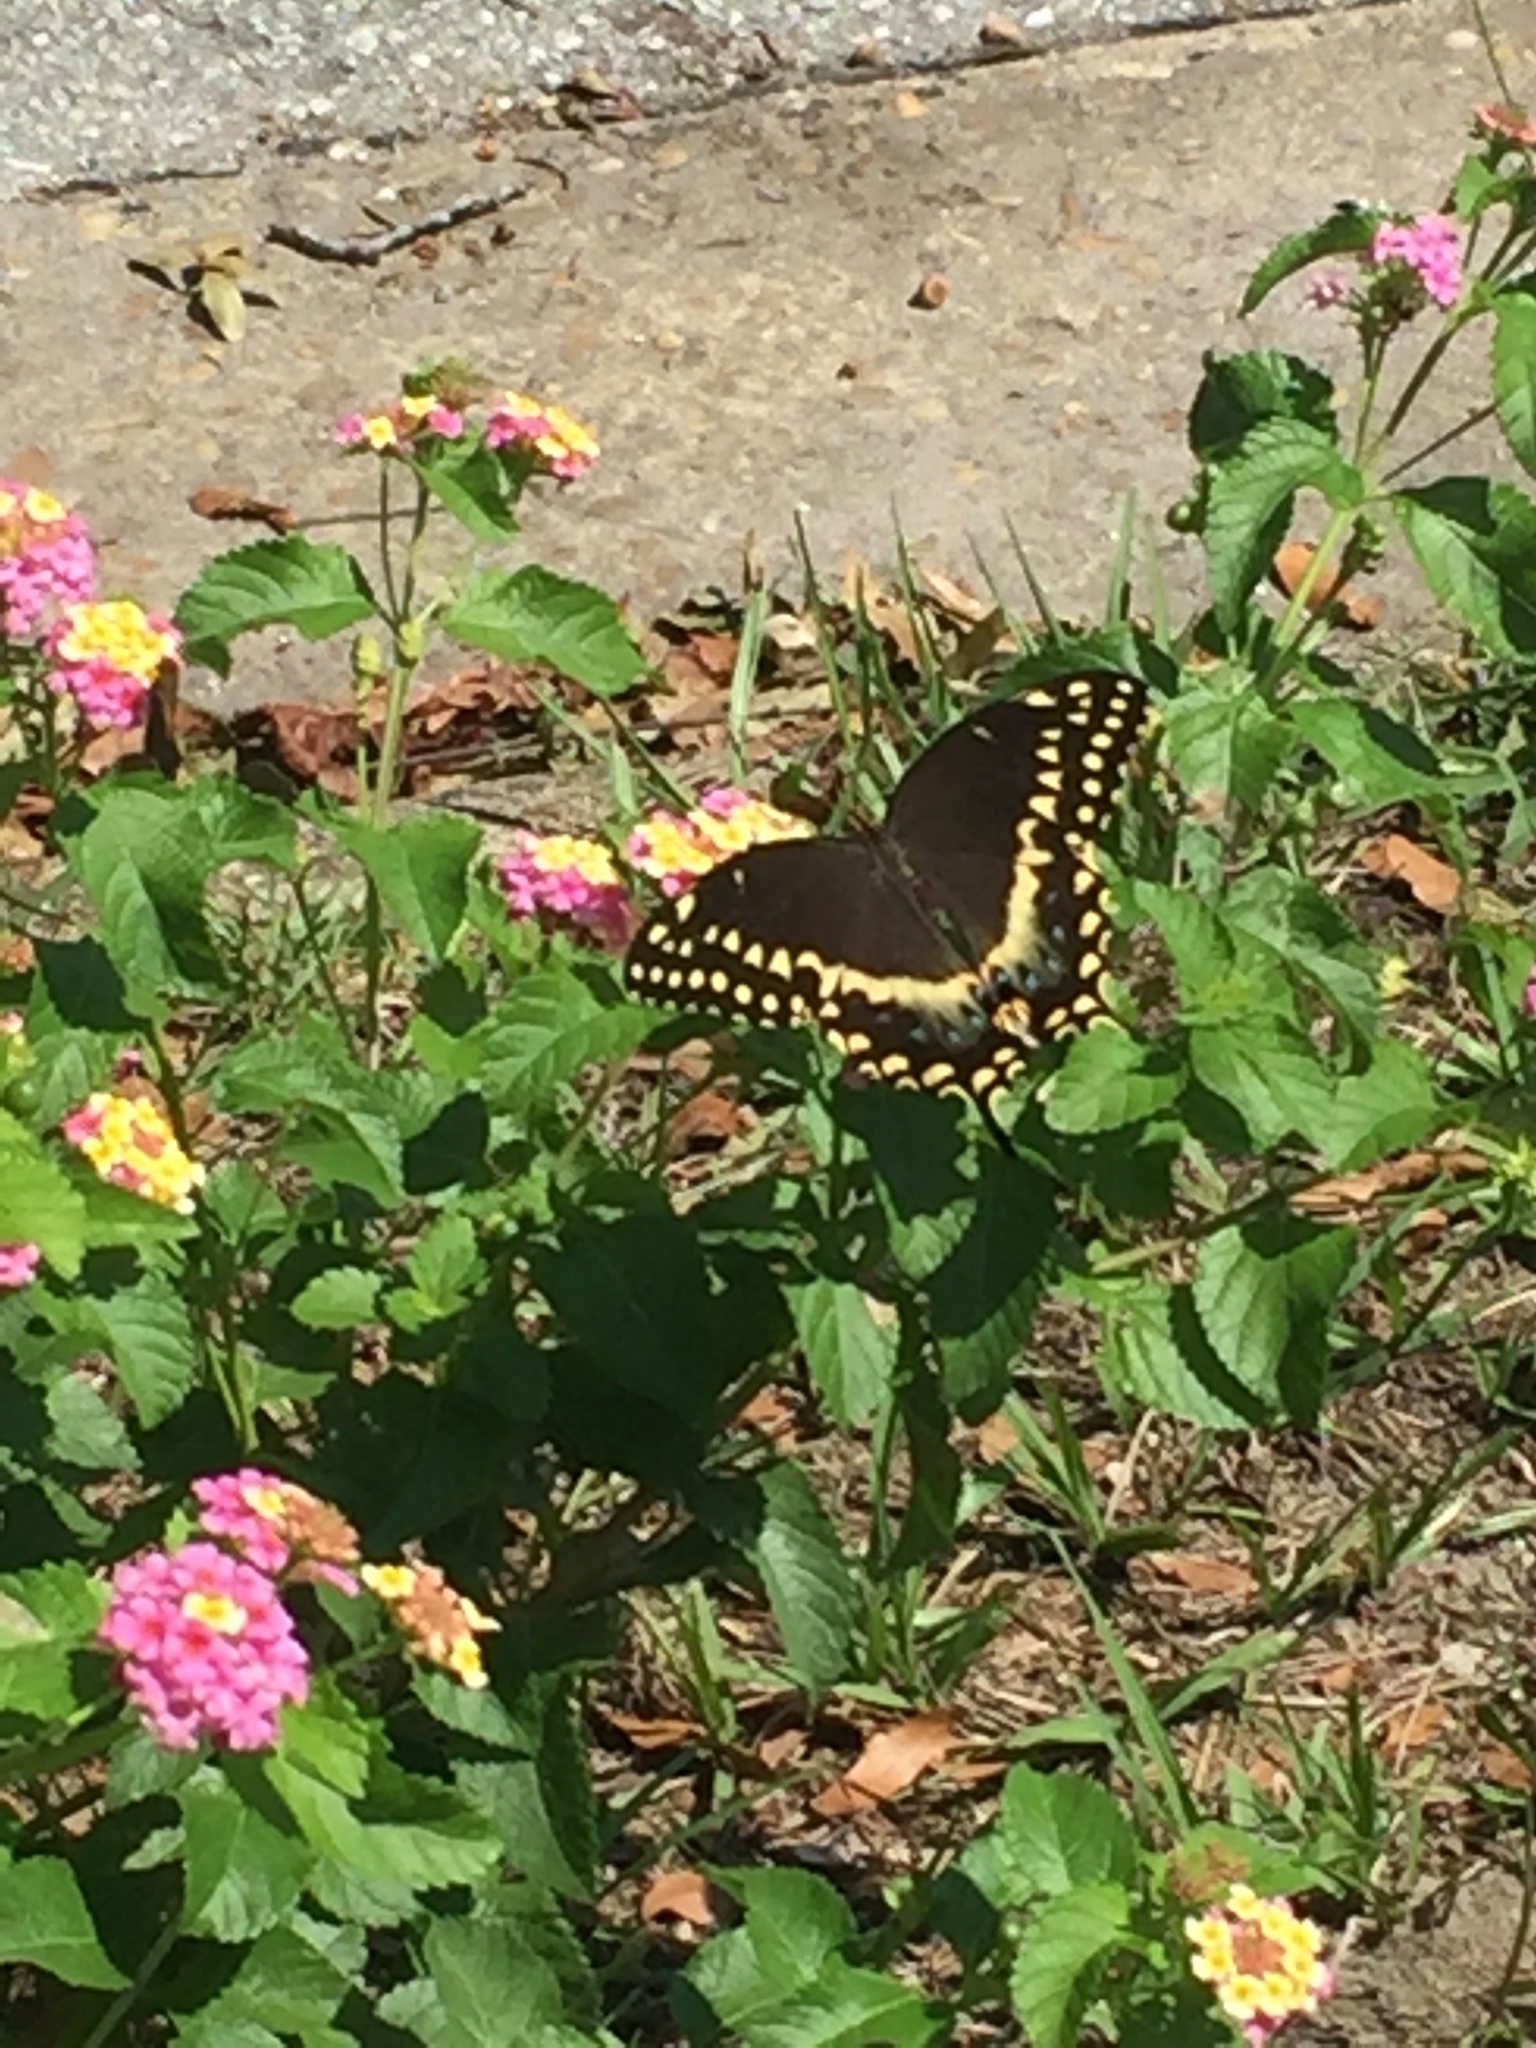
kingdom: Animalia
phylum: Arthropoda
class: Insecta
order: Lepidoptera
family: Papilionidae
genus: Papilio
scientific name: Papilio palamedes
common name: Palamedes swallowtail
